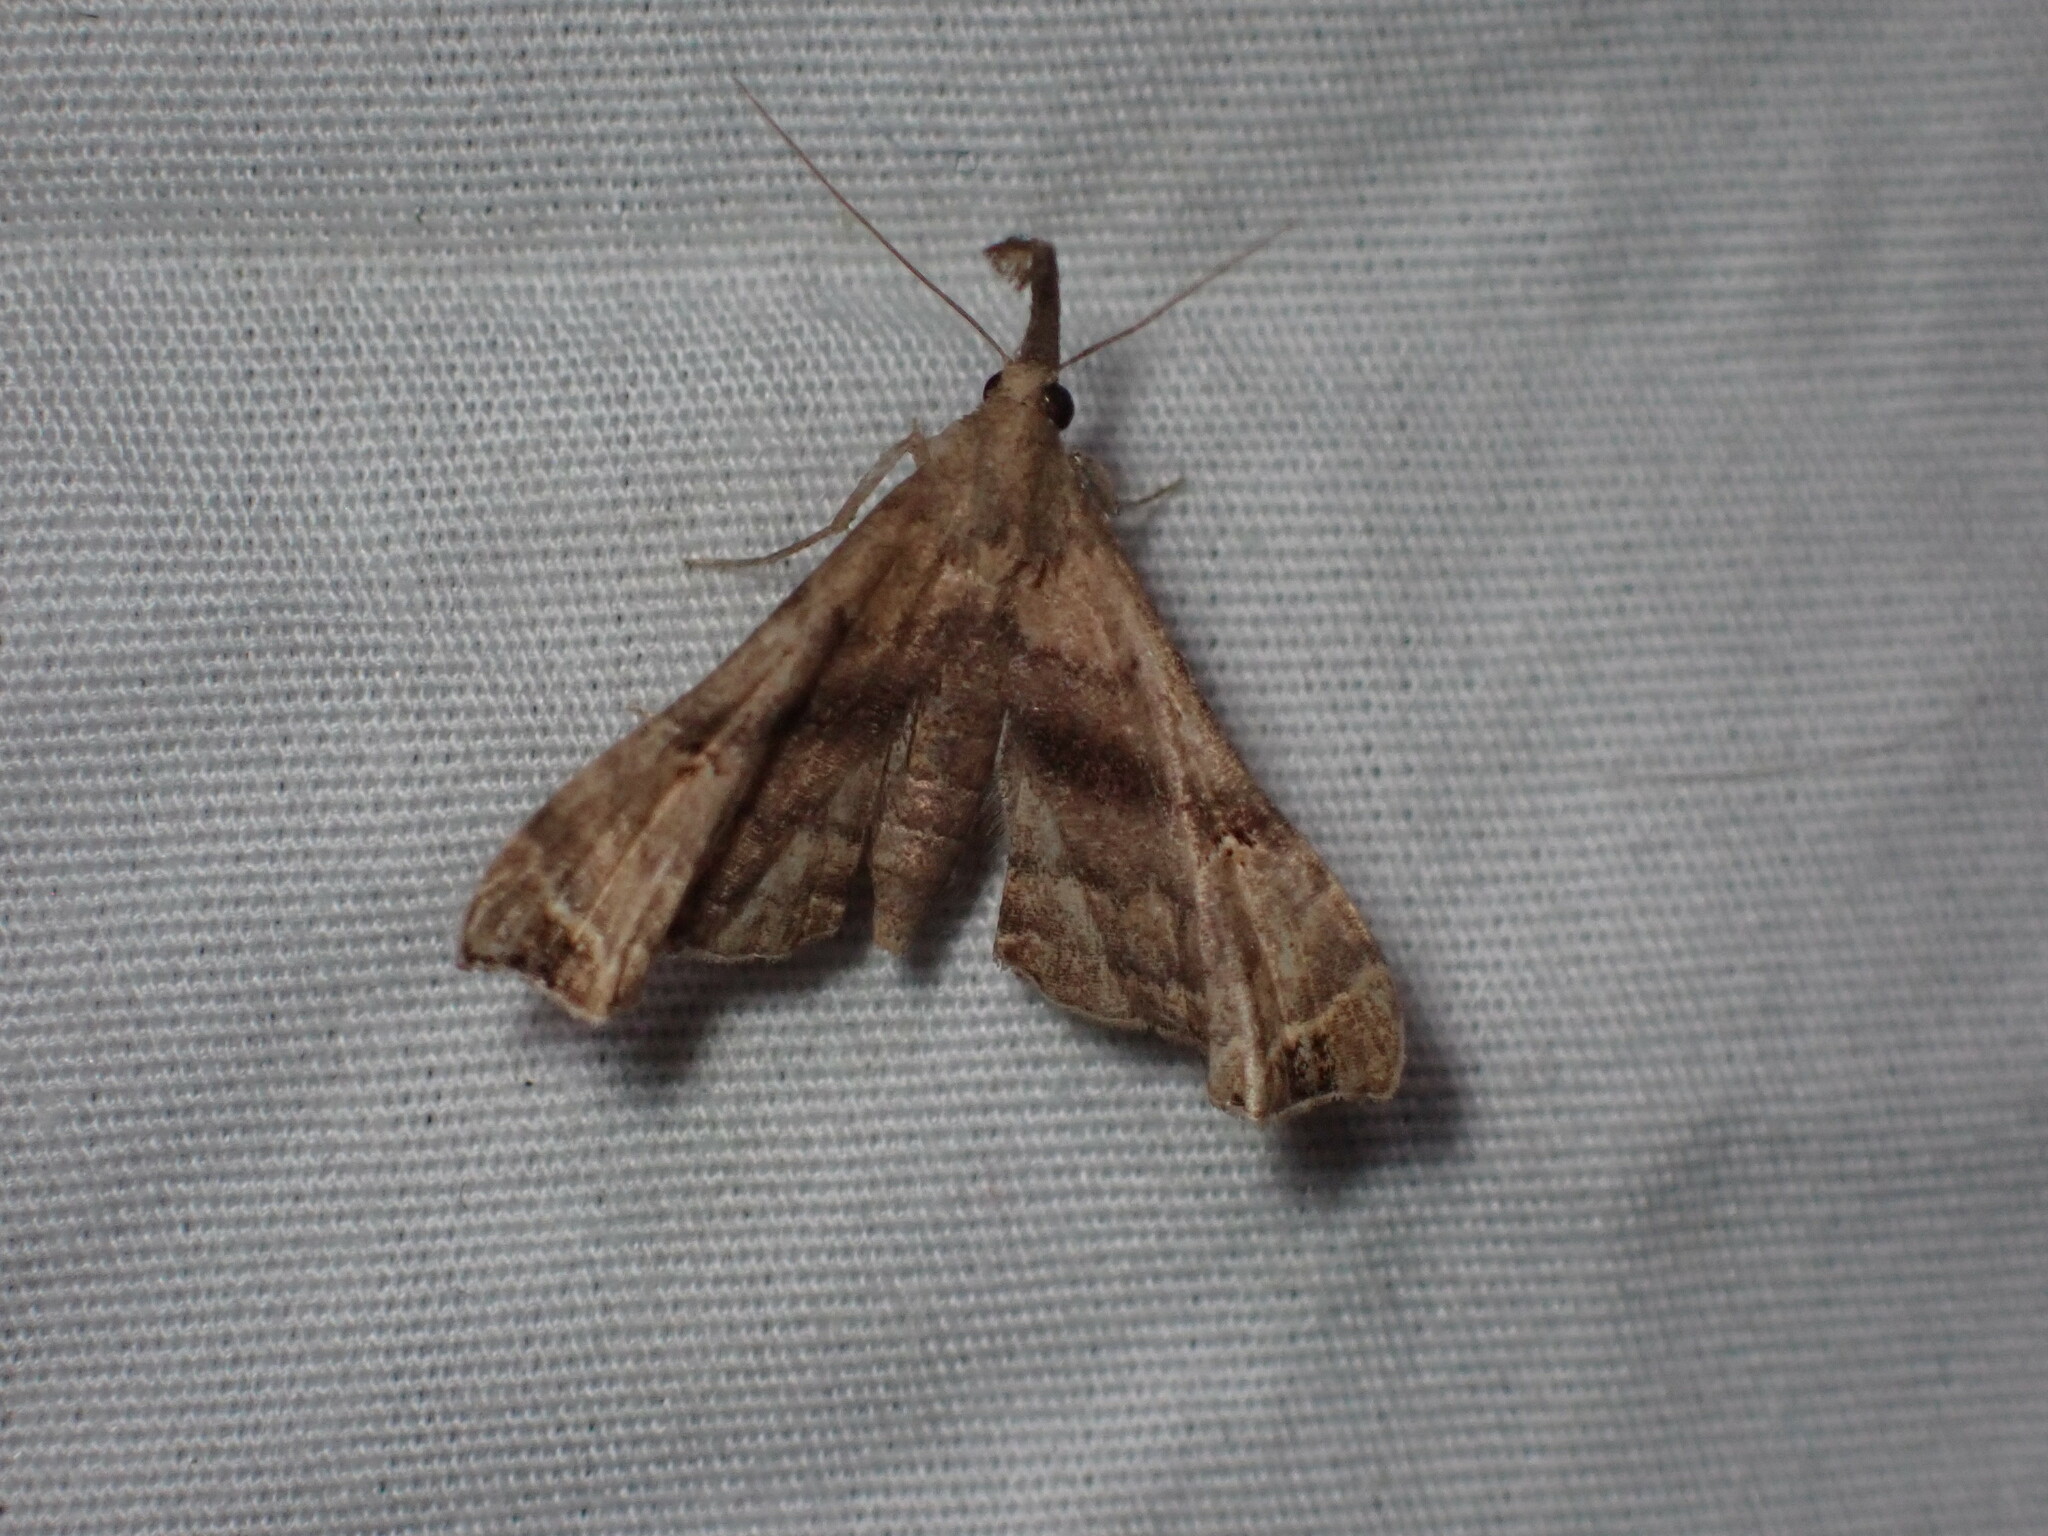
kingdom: Animalia
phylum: Arthropoda
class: Insecta
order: Lepidoptera
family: Erebidae
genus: Palthis
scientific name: Palthis asopialis
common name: Faint-spotted palthis moth
